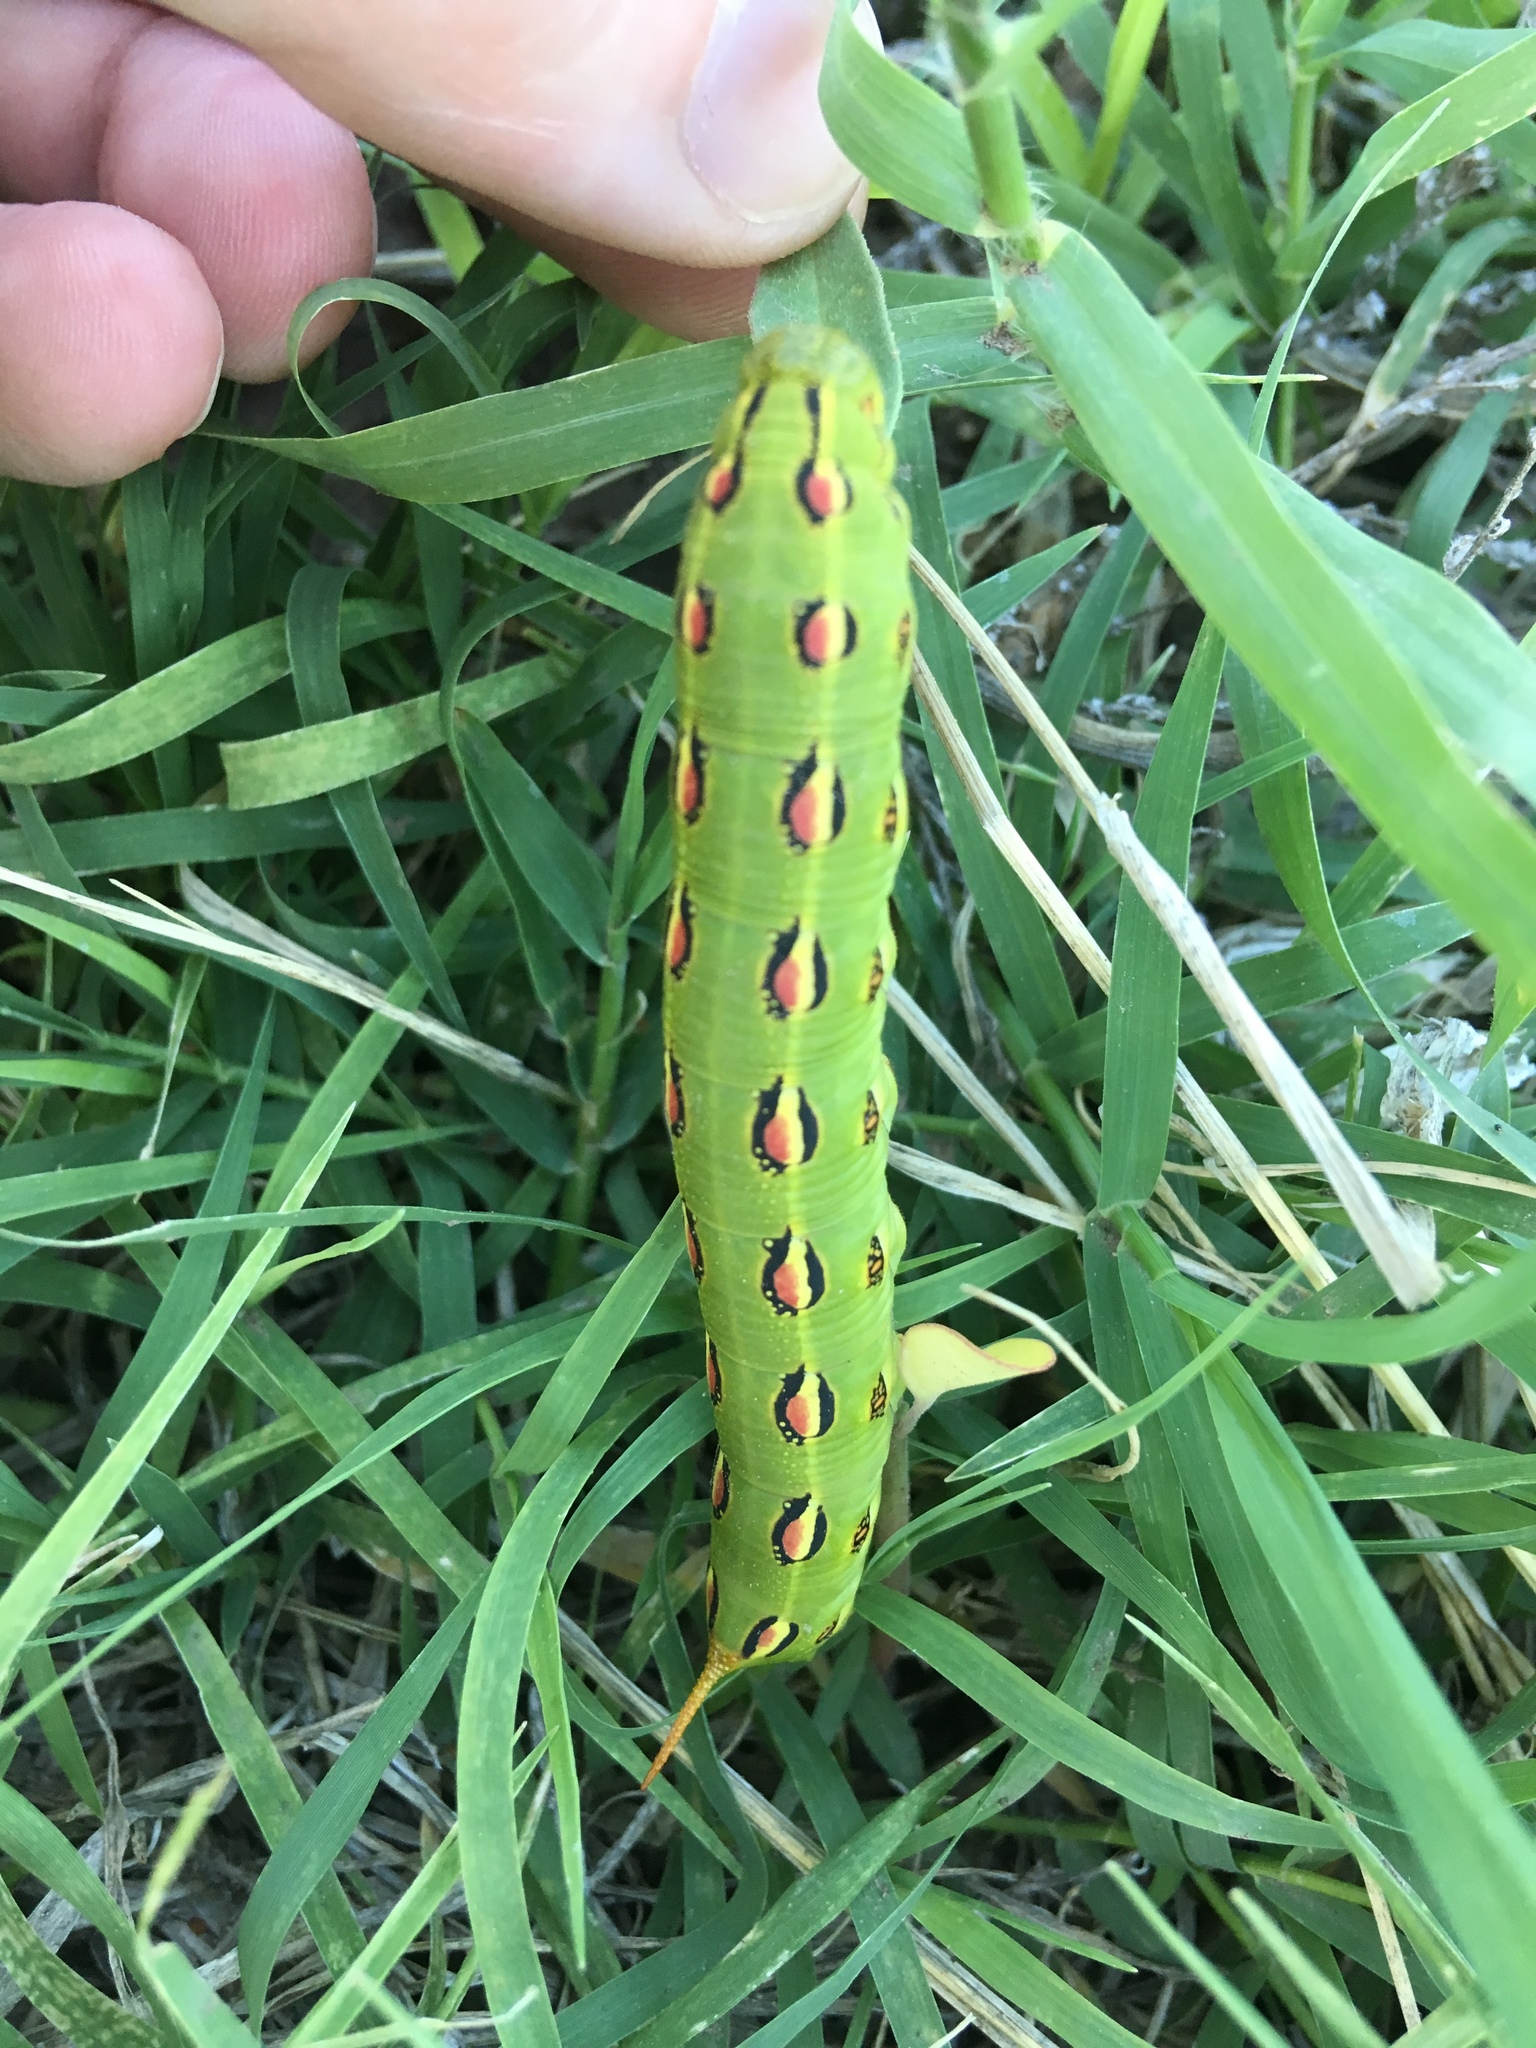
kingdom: Animalia
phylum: Arthropoda
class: Insecta
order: Lepidoptera
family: Sphingidae
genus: Hyles
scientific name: Hyles lineata
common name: White-lined sphinx
